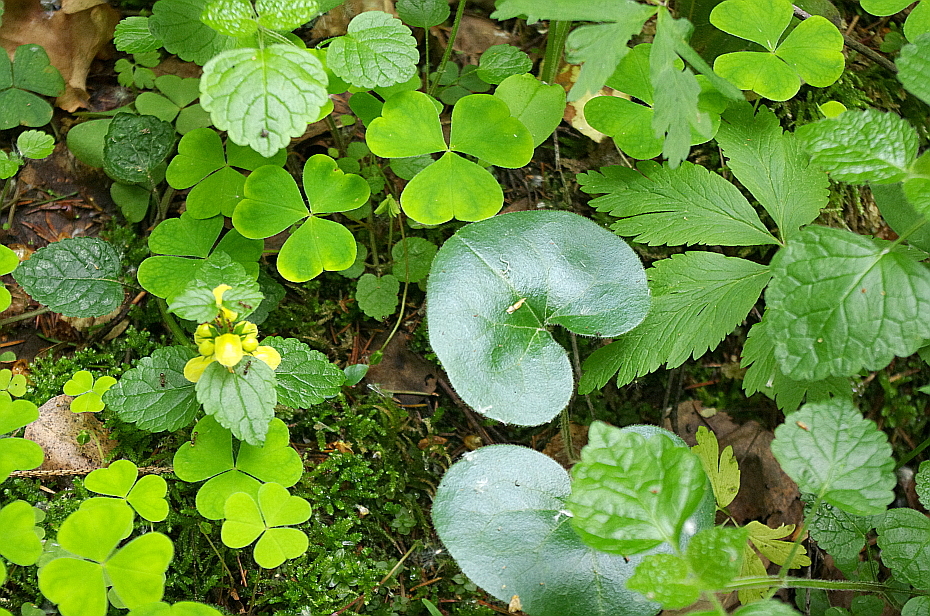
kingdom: Plantae
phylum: Tracheophyta
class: Magnoliopsida
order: Lamiales
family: Lamiaceae
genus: Lamium
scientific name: Lamium galeobdolon
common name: Yellow archangel
